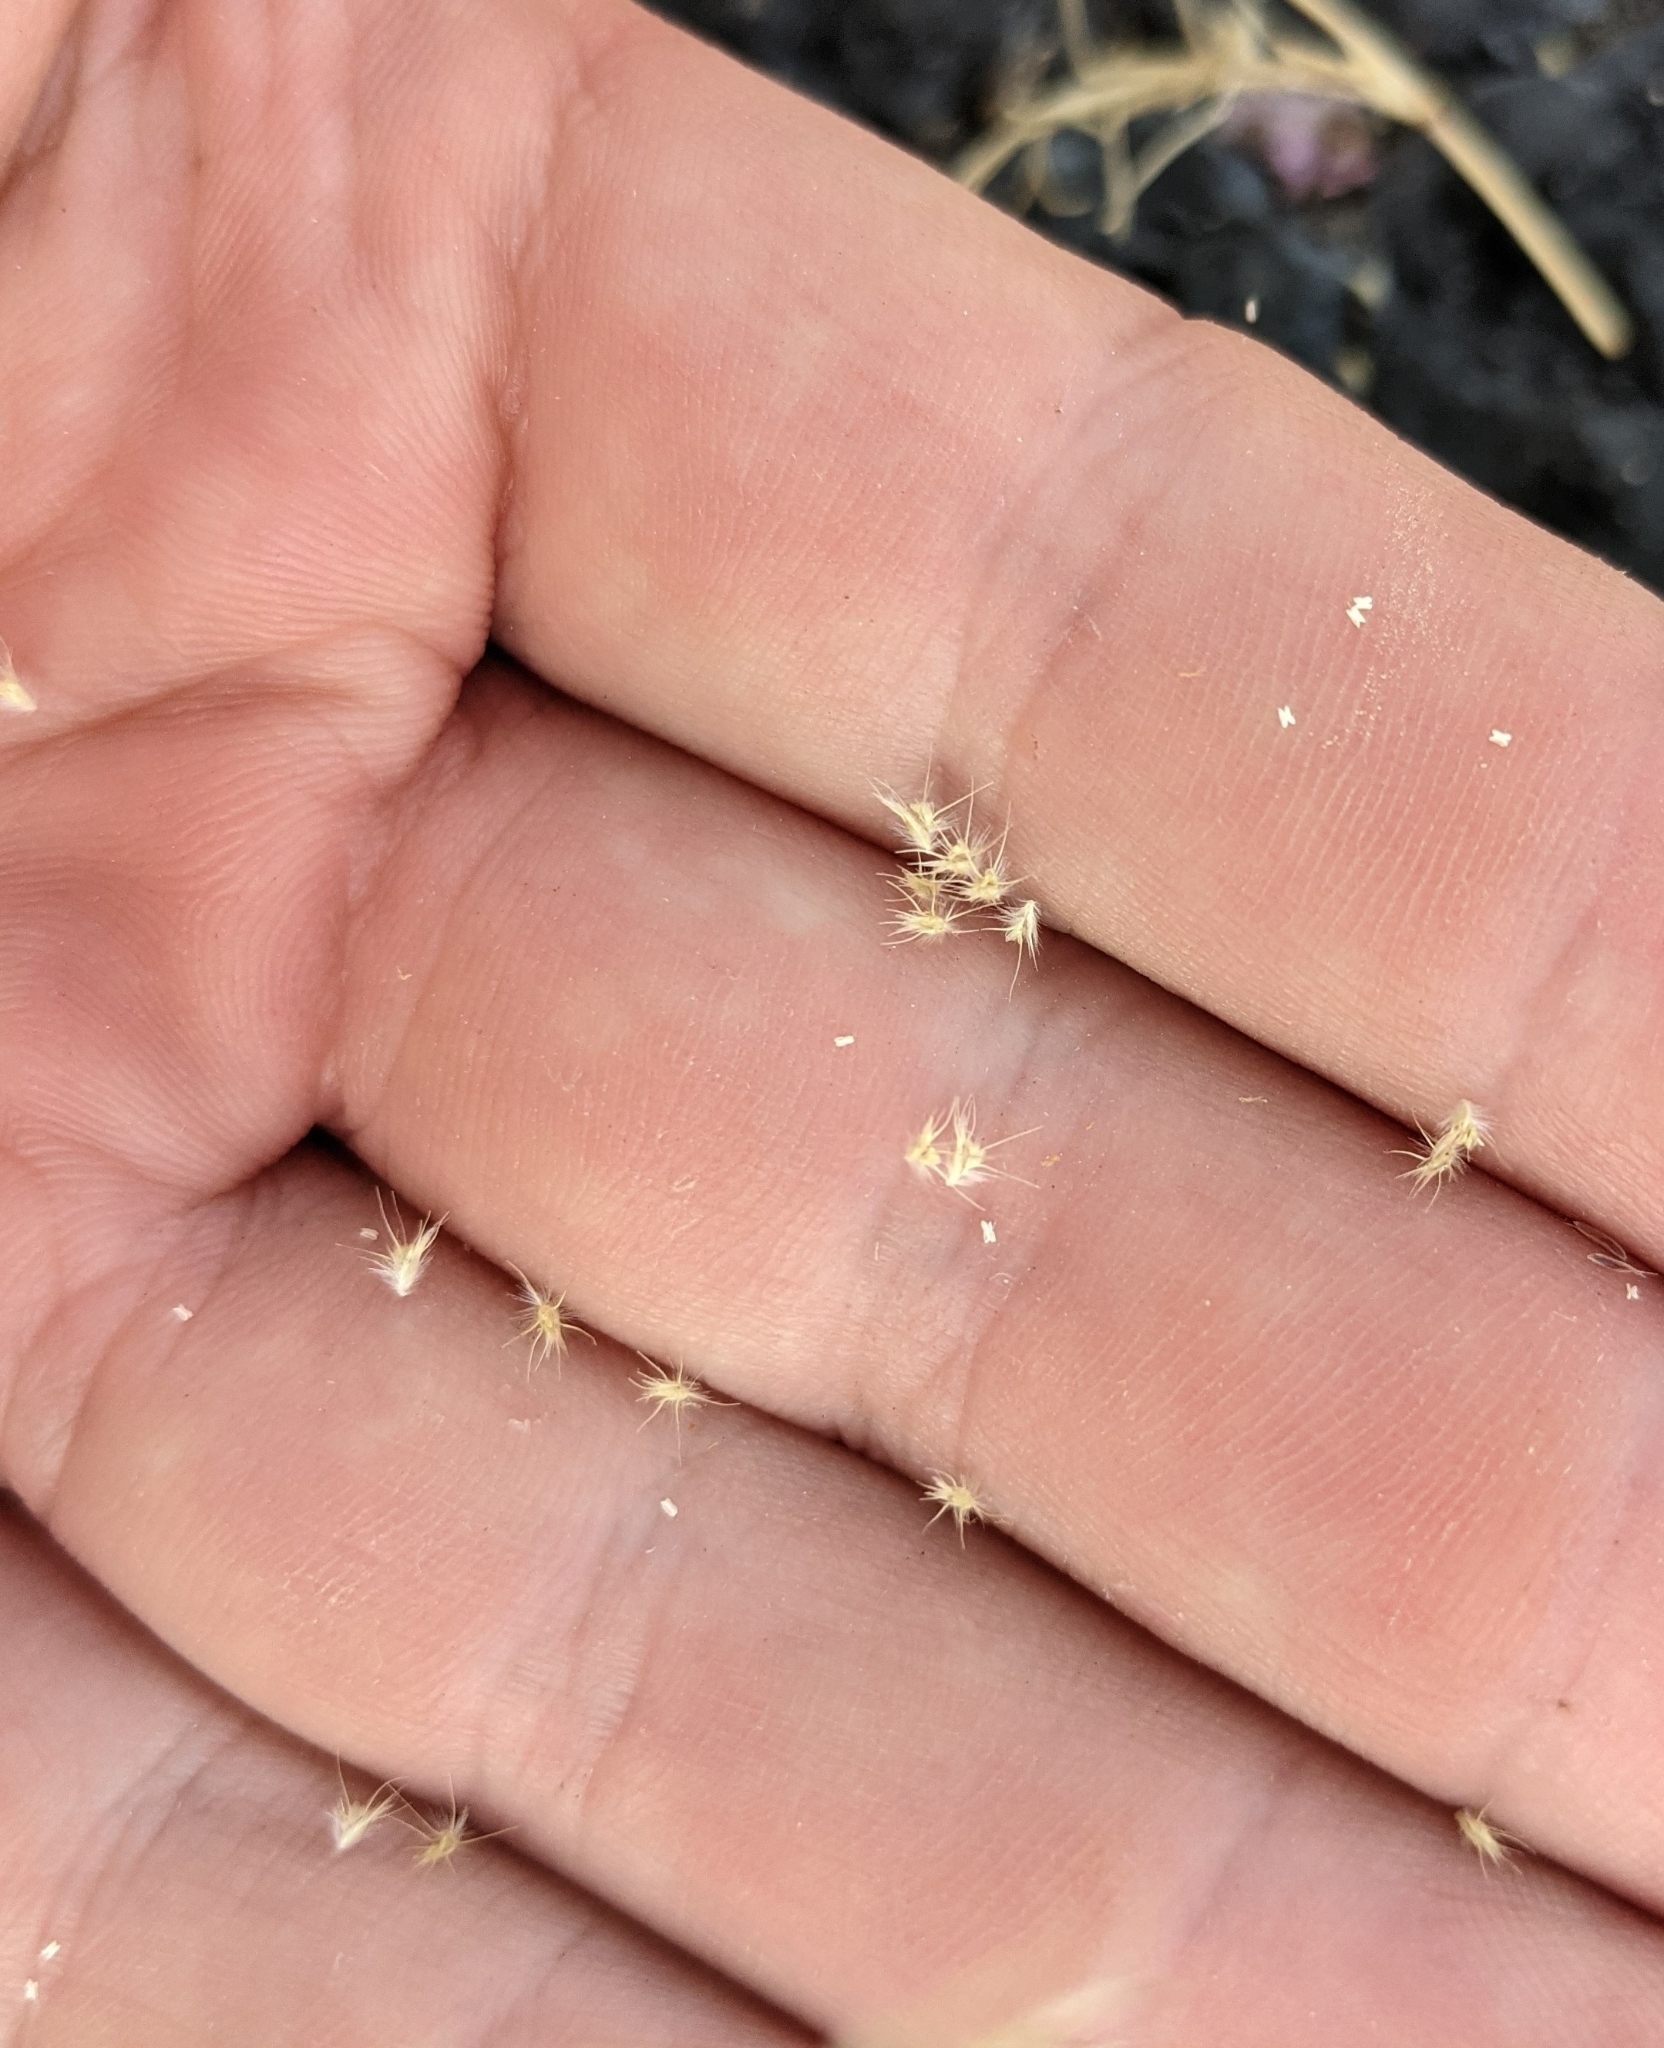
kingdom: Plantae
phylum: Tracheophyta
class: Liliopsida
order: Poales
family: Poaceae
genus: Bouteloua
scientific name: Bouteloua barbata
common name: Six-weeks grama
